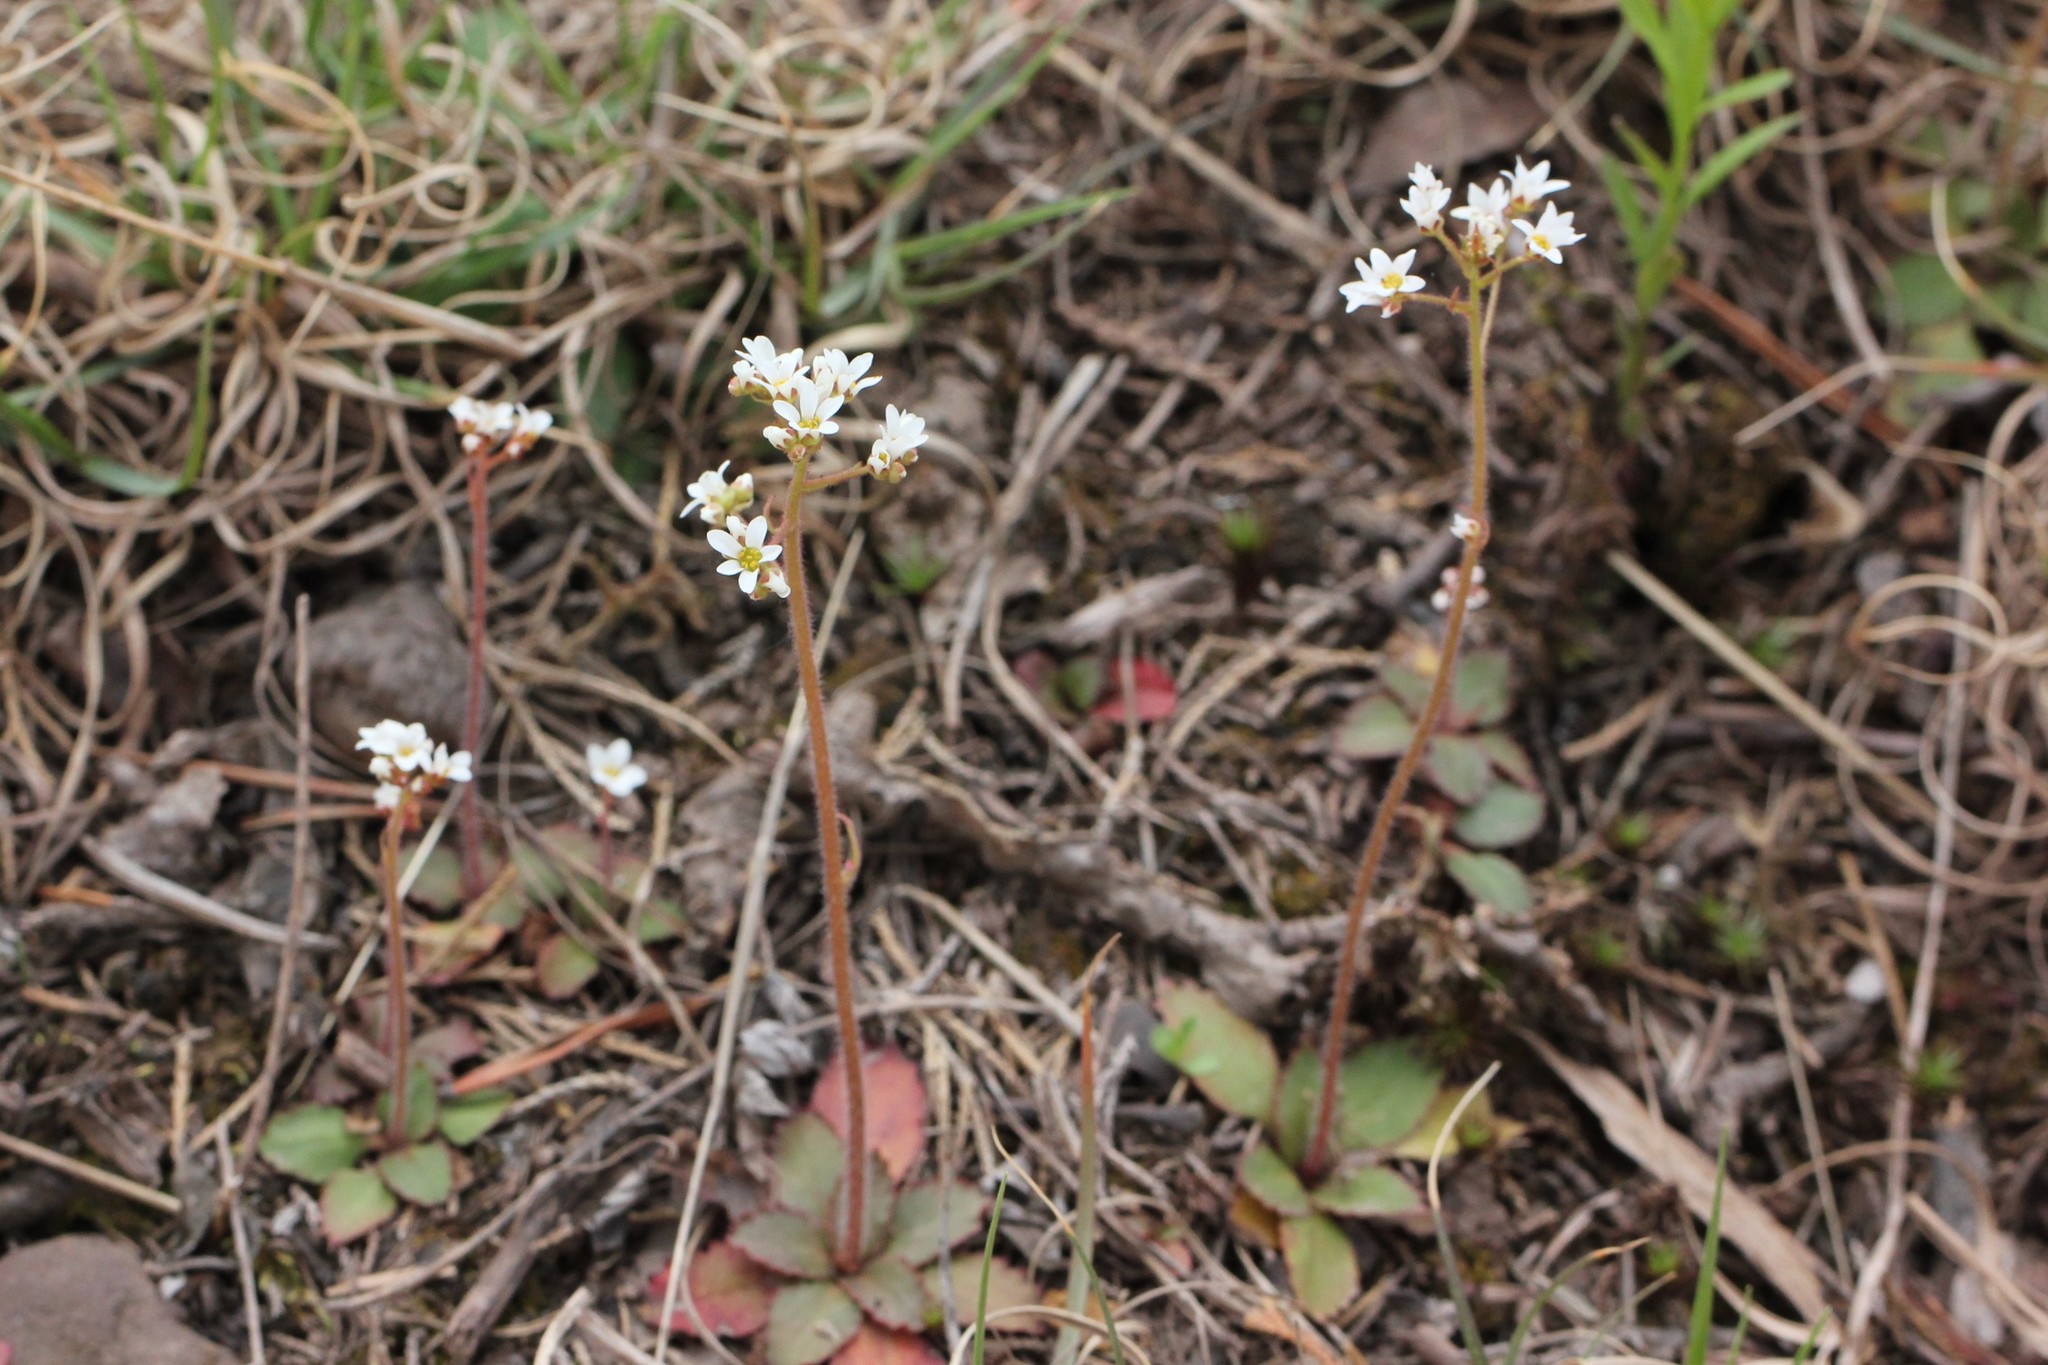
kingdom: Plantae
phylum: Tracheophyta
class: Magnoliopsida
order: Saxifragales
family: Saxifragaceae
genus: Micranthes
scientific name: Micranthes virginiensis
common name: Early saxifrage
